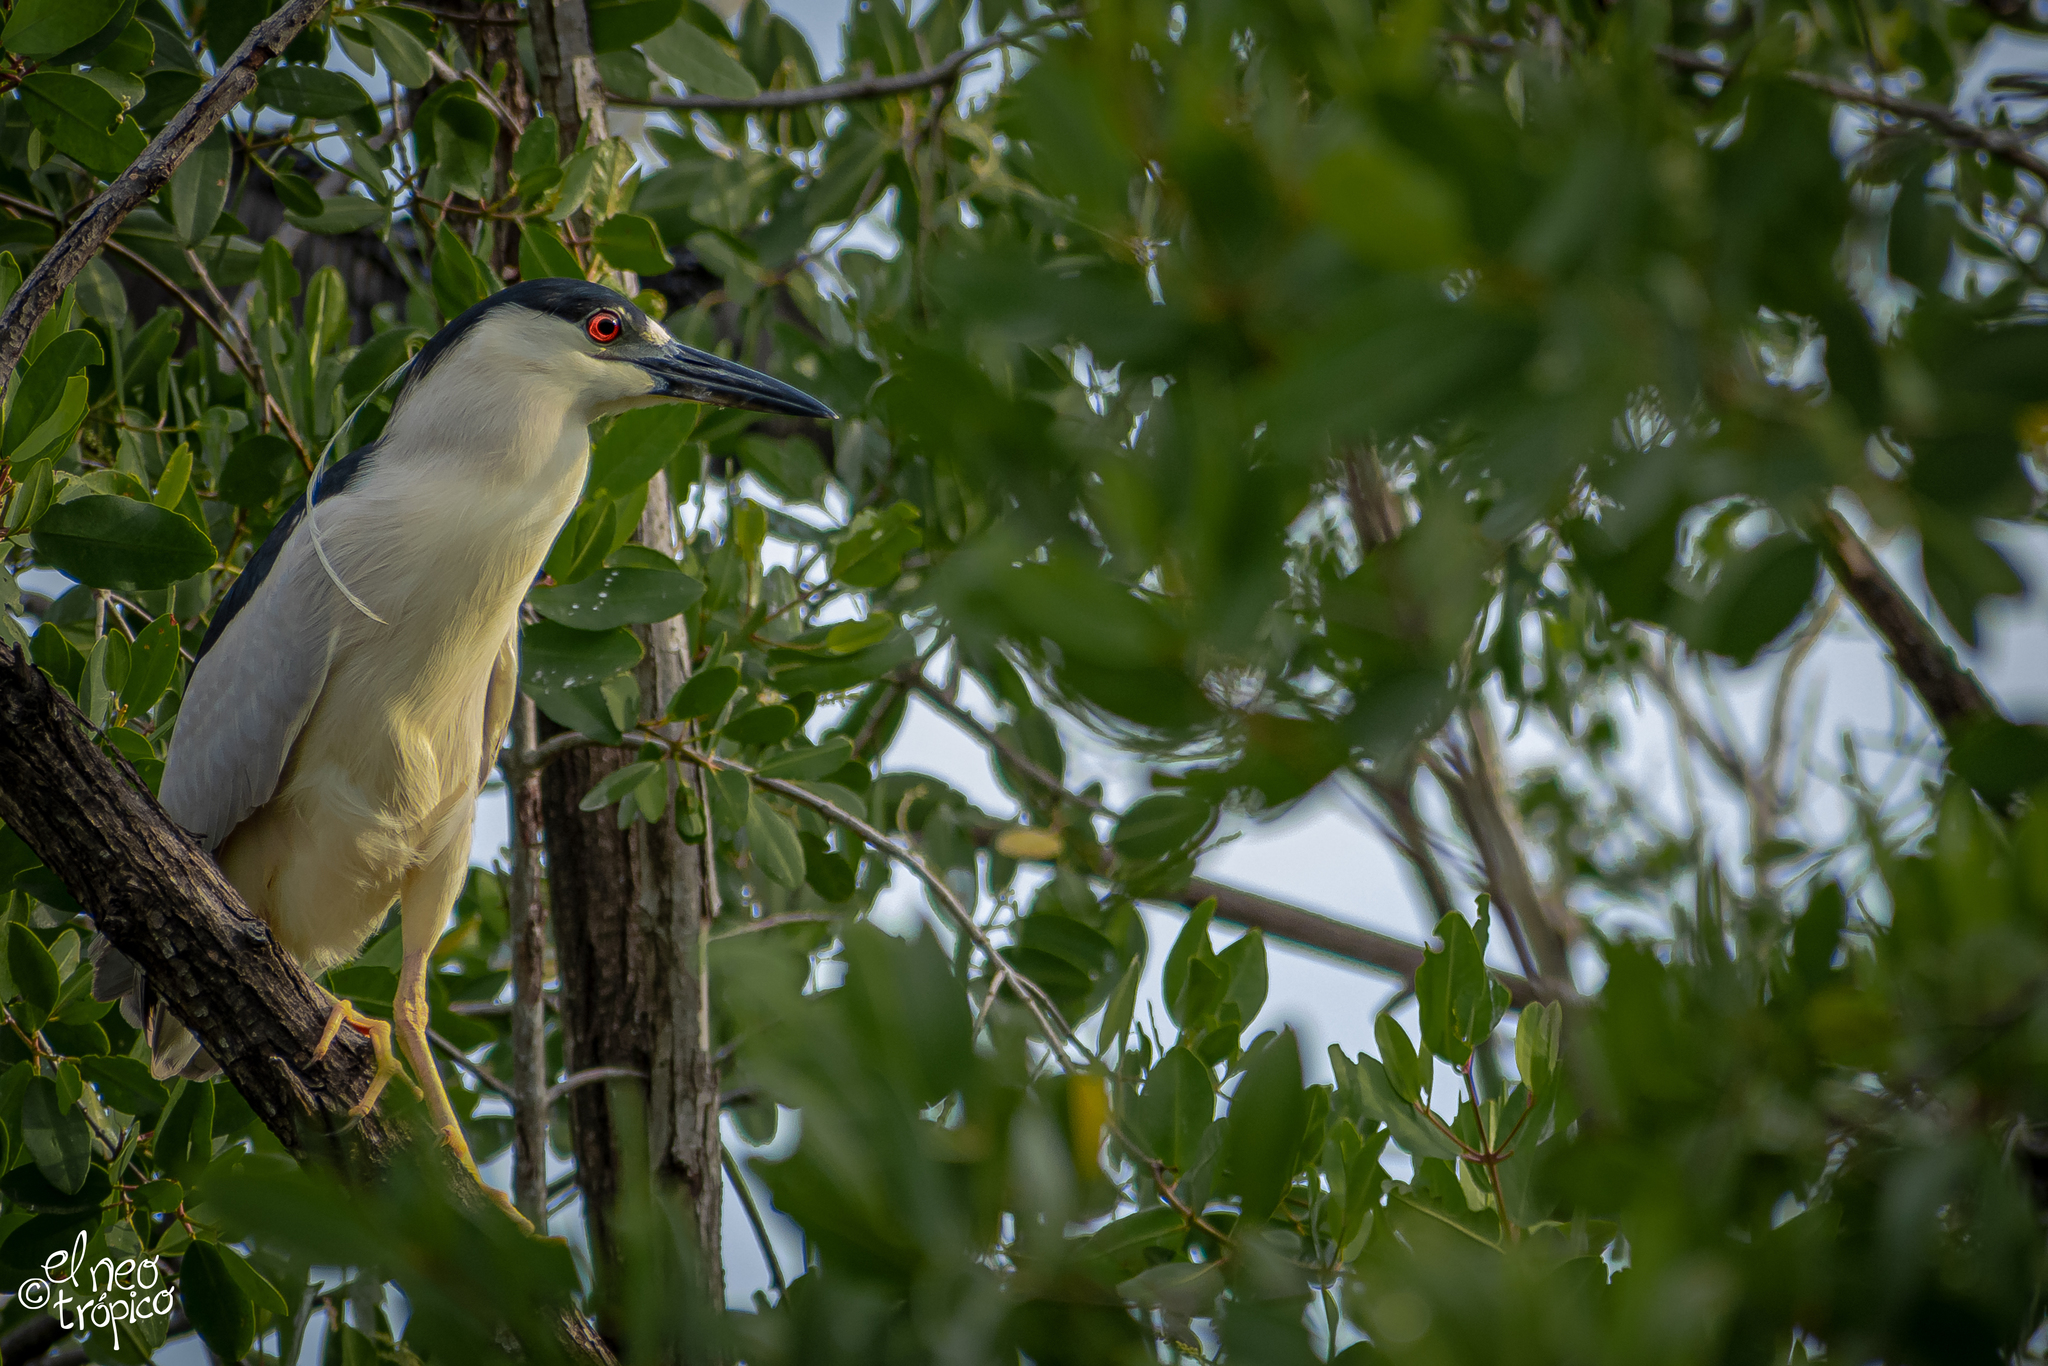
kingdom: Animalia
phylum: Chordata
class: Aves
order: Pelecaniformes
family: Ardeidae
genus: Nycticorax
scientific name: Nycticorax nycticorax
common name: Black-crowned night heron
